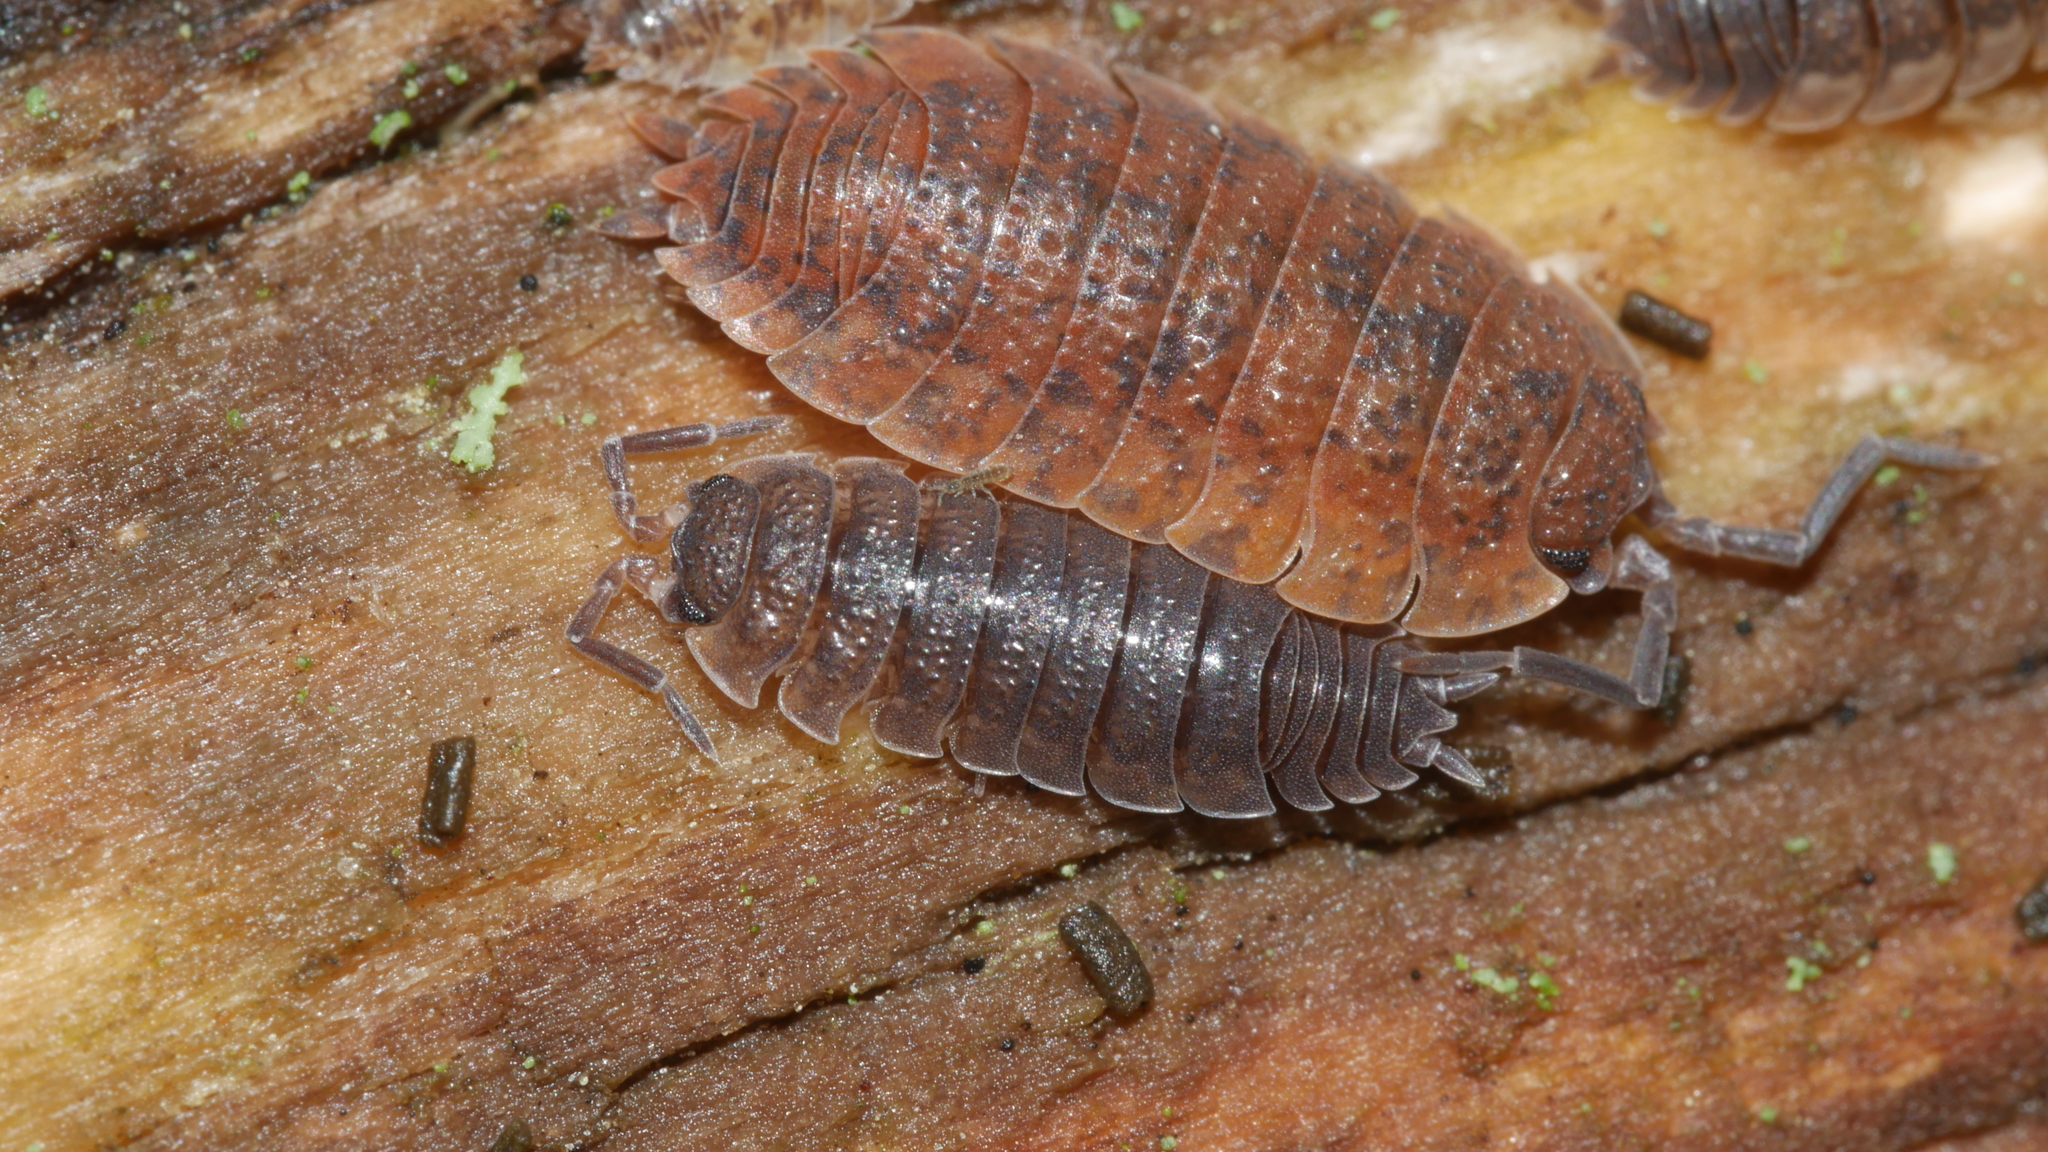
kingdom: Animalia
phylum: Arthropoda
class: Malacostraca
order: Isopoda
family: Porcellionidae
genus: Porcellio
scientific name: Porcellio scaber
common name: Common rough woodlouse
